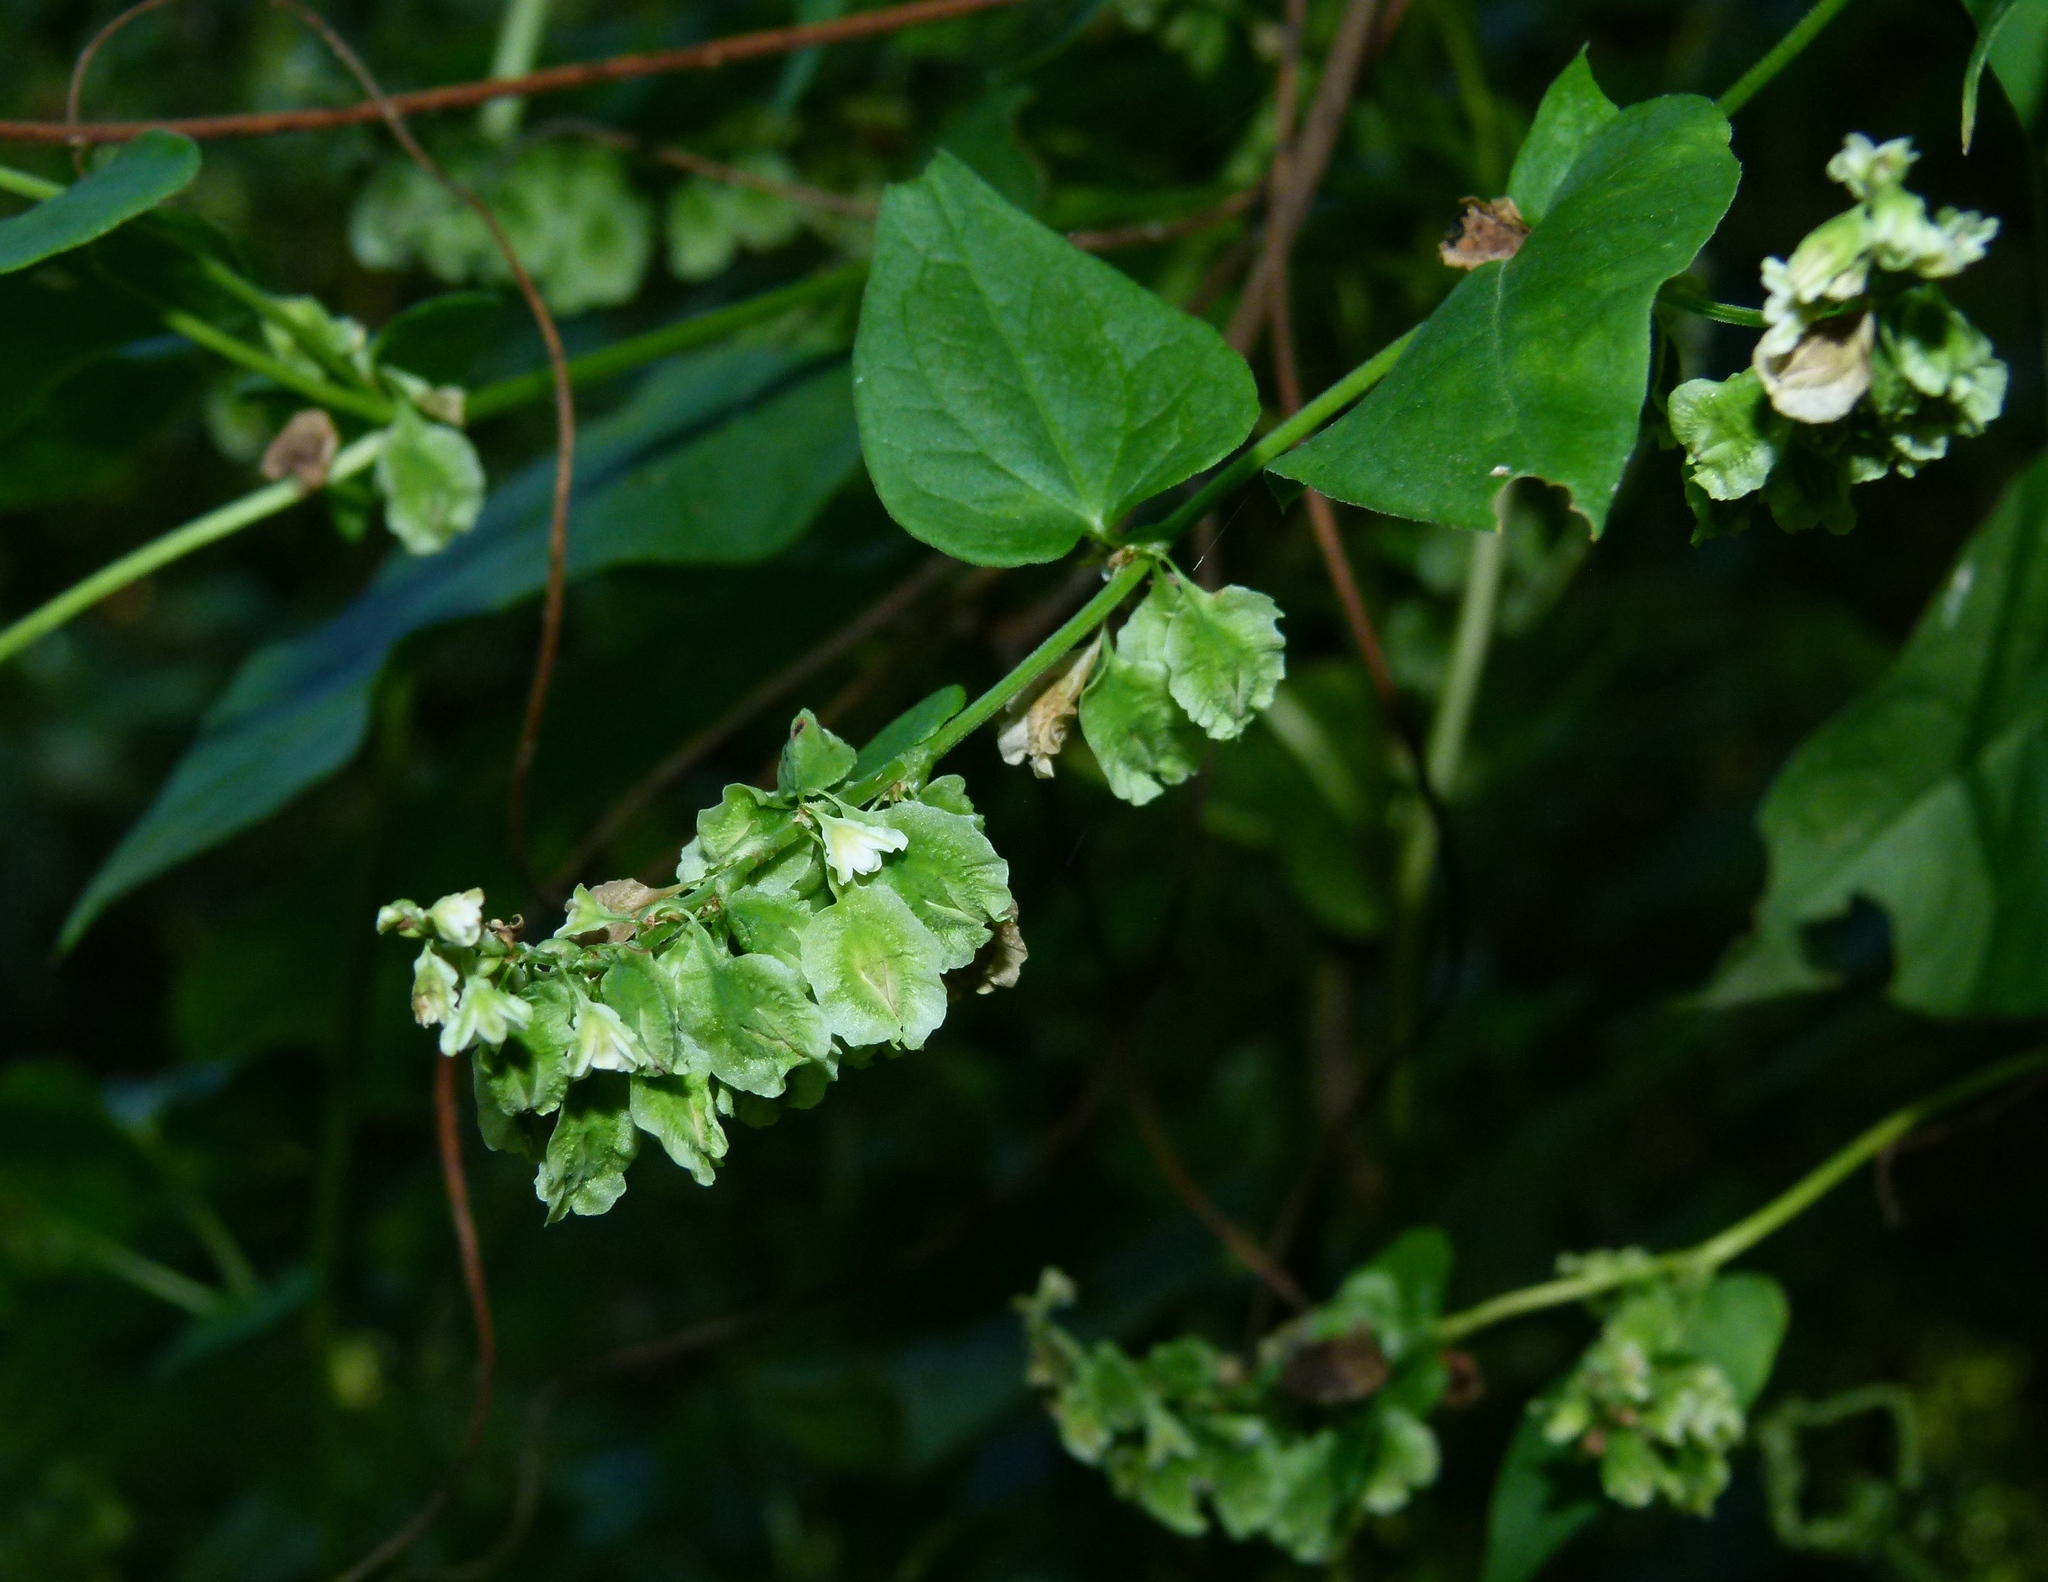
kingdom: Plantae
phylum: Tracheophyta
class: Magnoliopsida
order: Caryophyllales
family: Polygonaceae
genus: Fallopia
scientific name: Fallopia scandens
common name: Climbing false buckwheat
